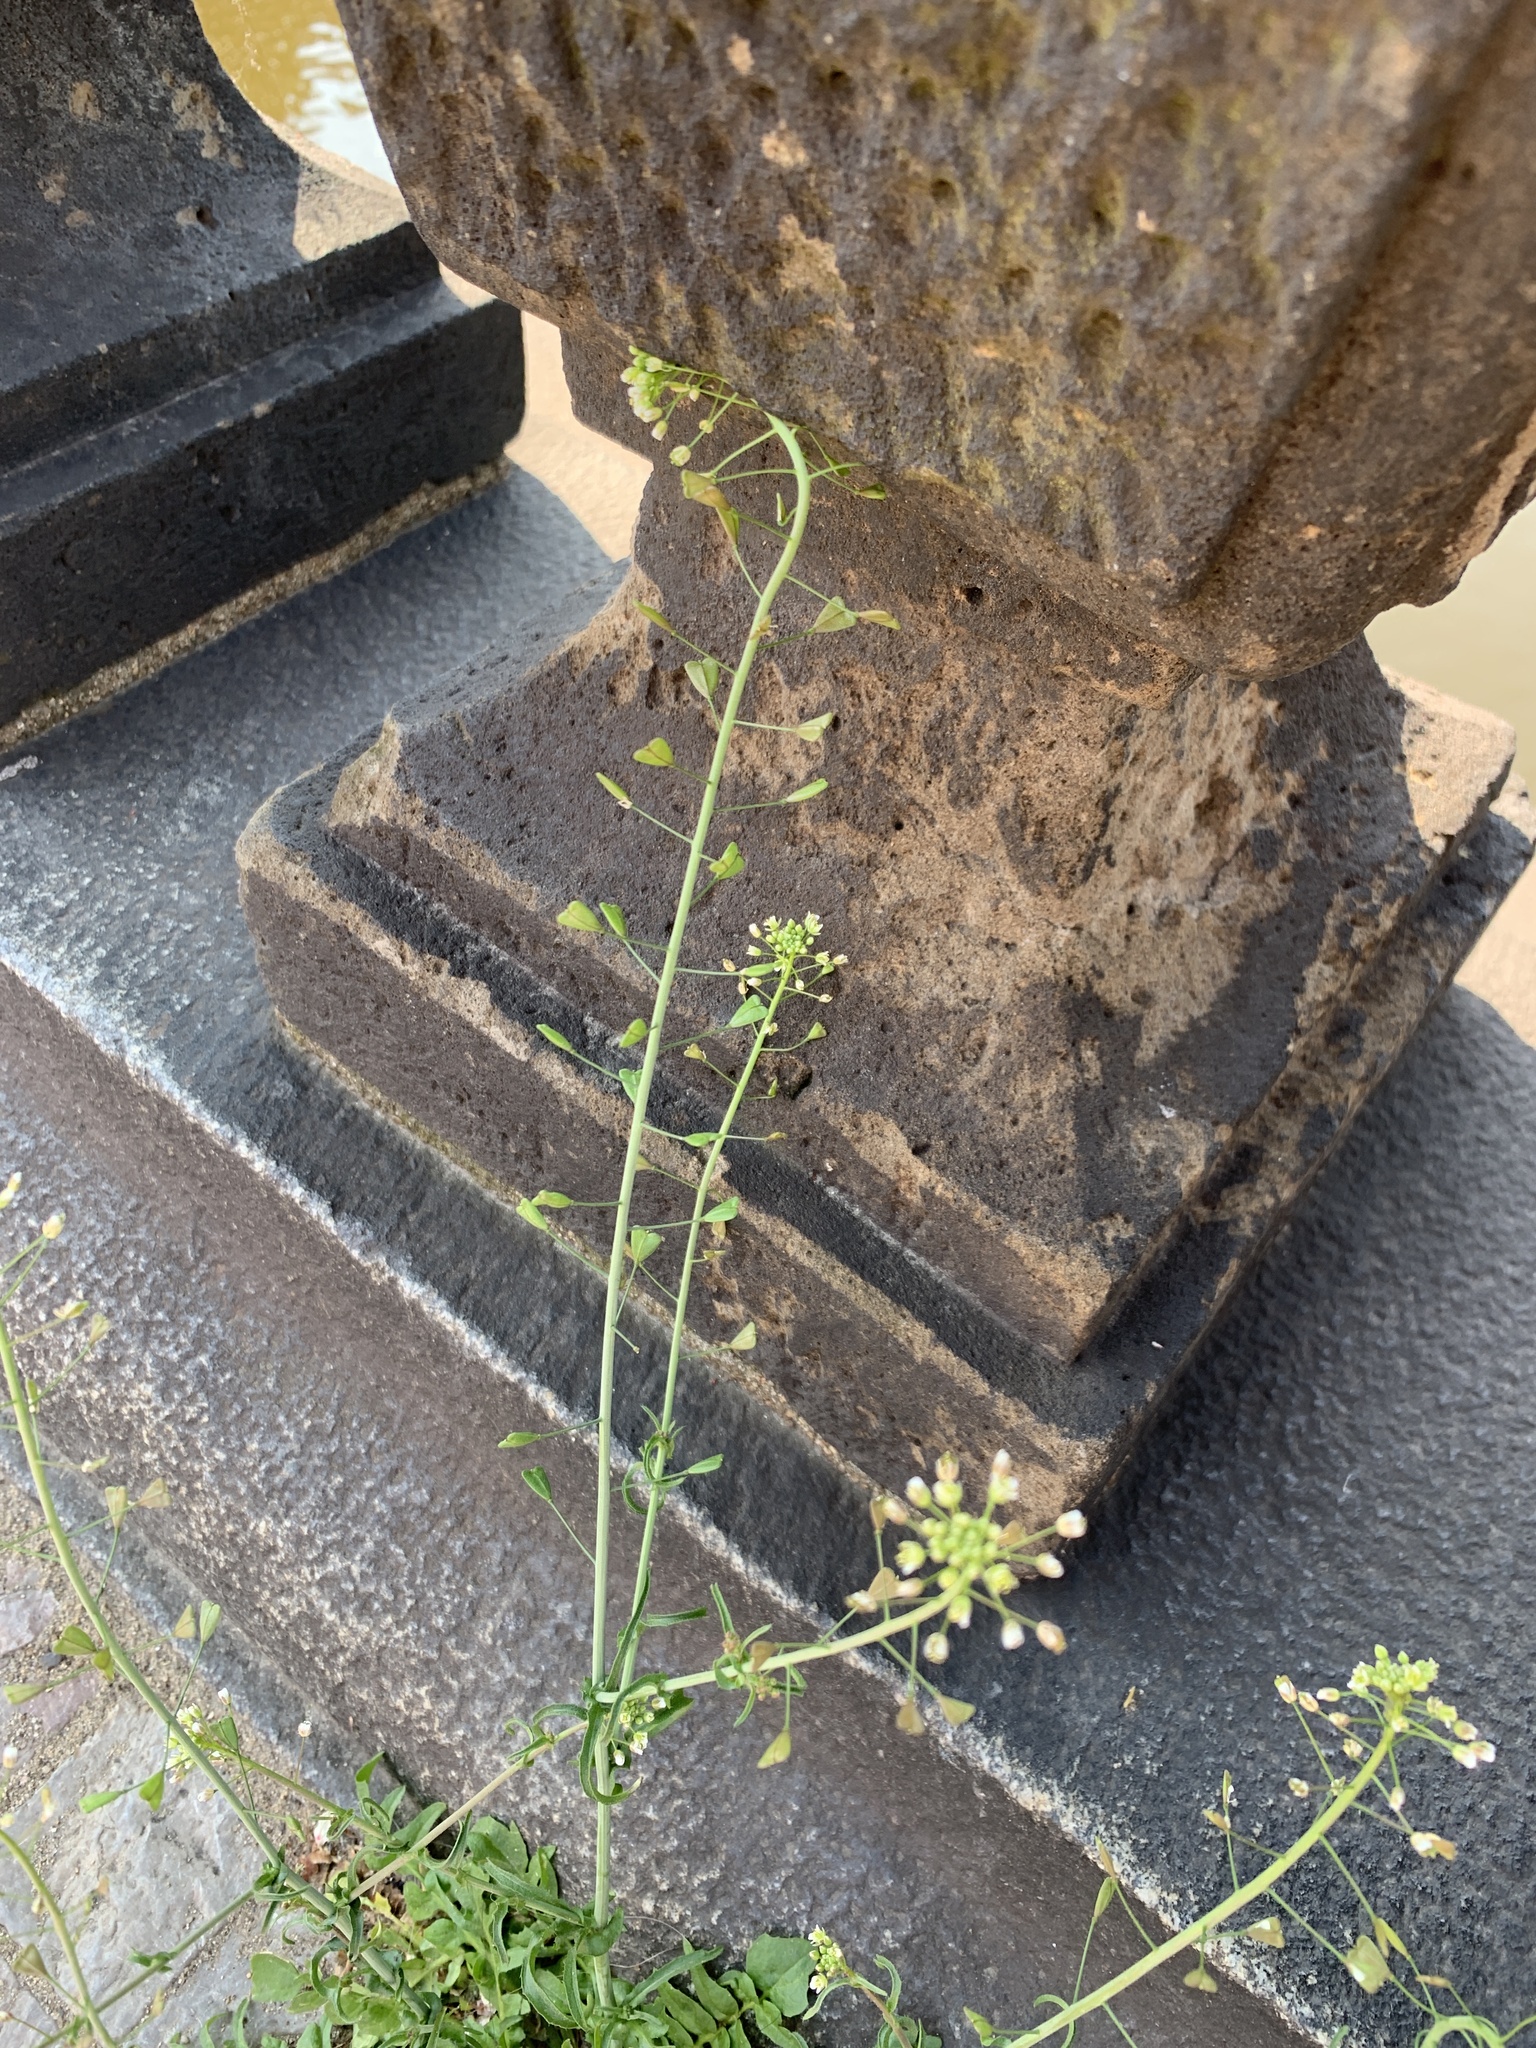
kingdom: Plantae
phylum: Tracheophyta
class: Magnoliopsida
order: Brassicales
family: Brassicaceae
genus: Capsella
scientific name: Capsella bursa-pastoris
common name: Shepherd's purse
